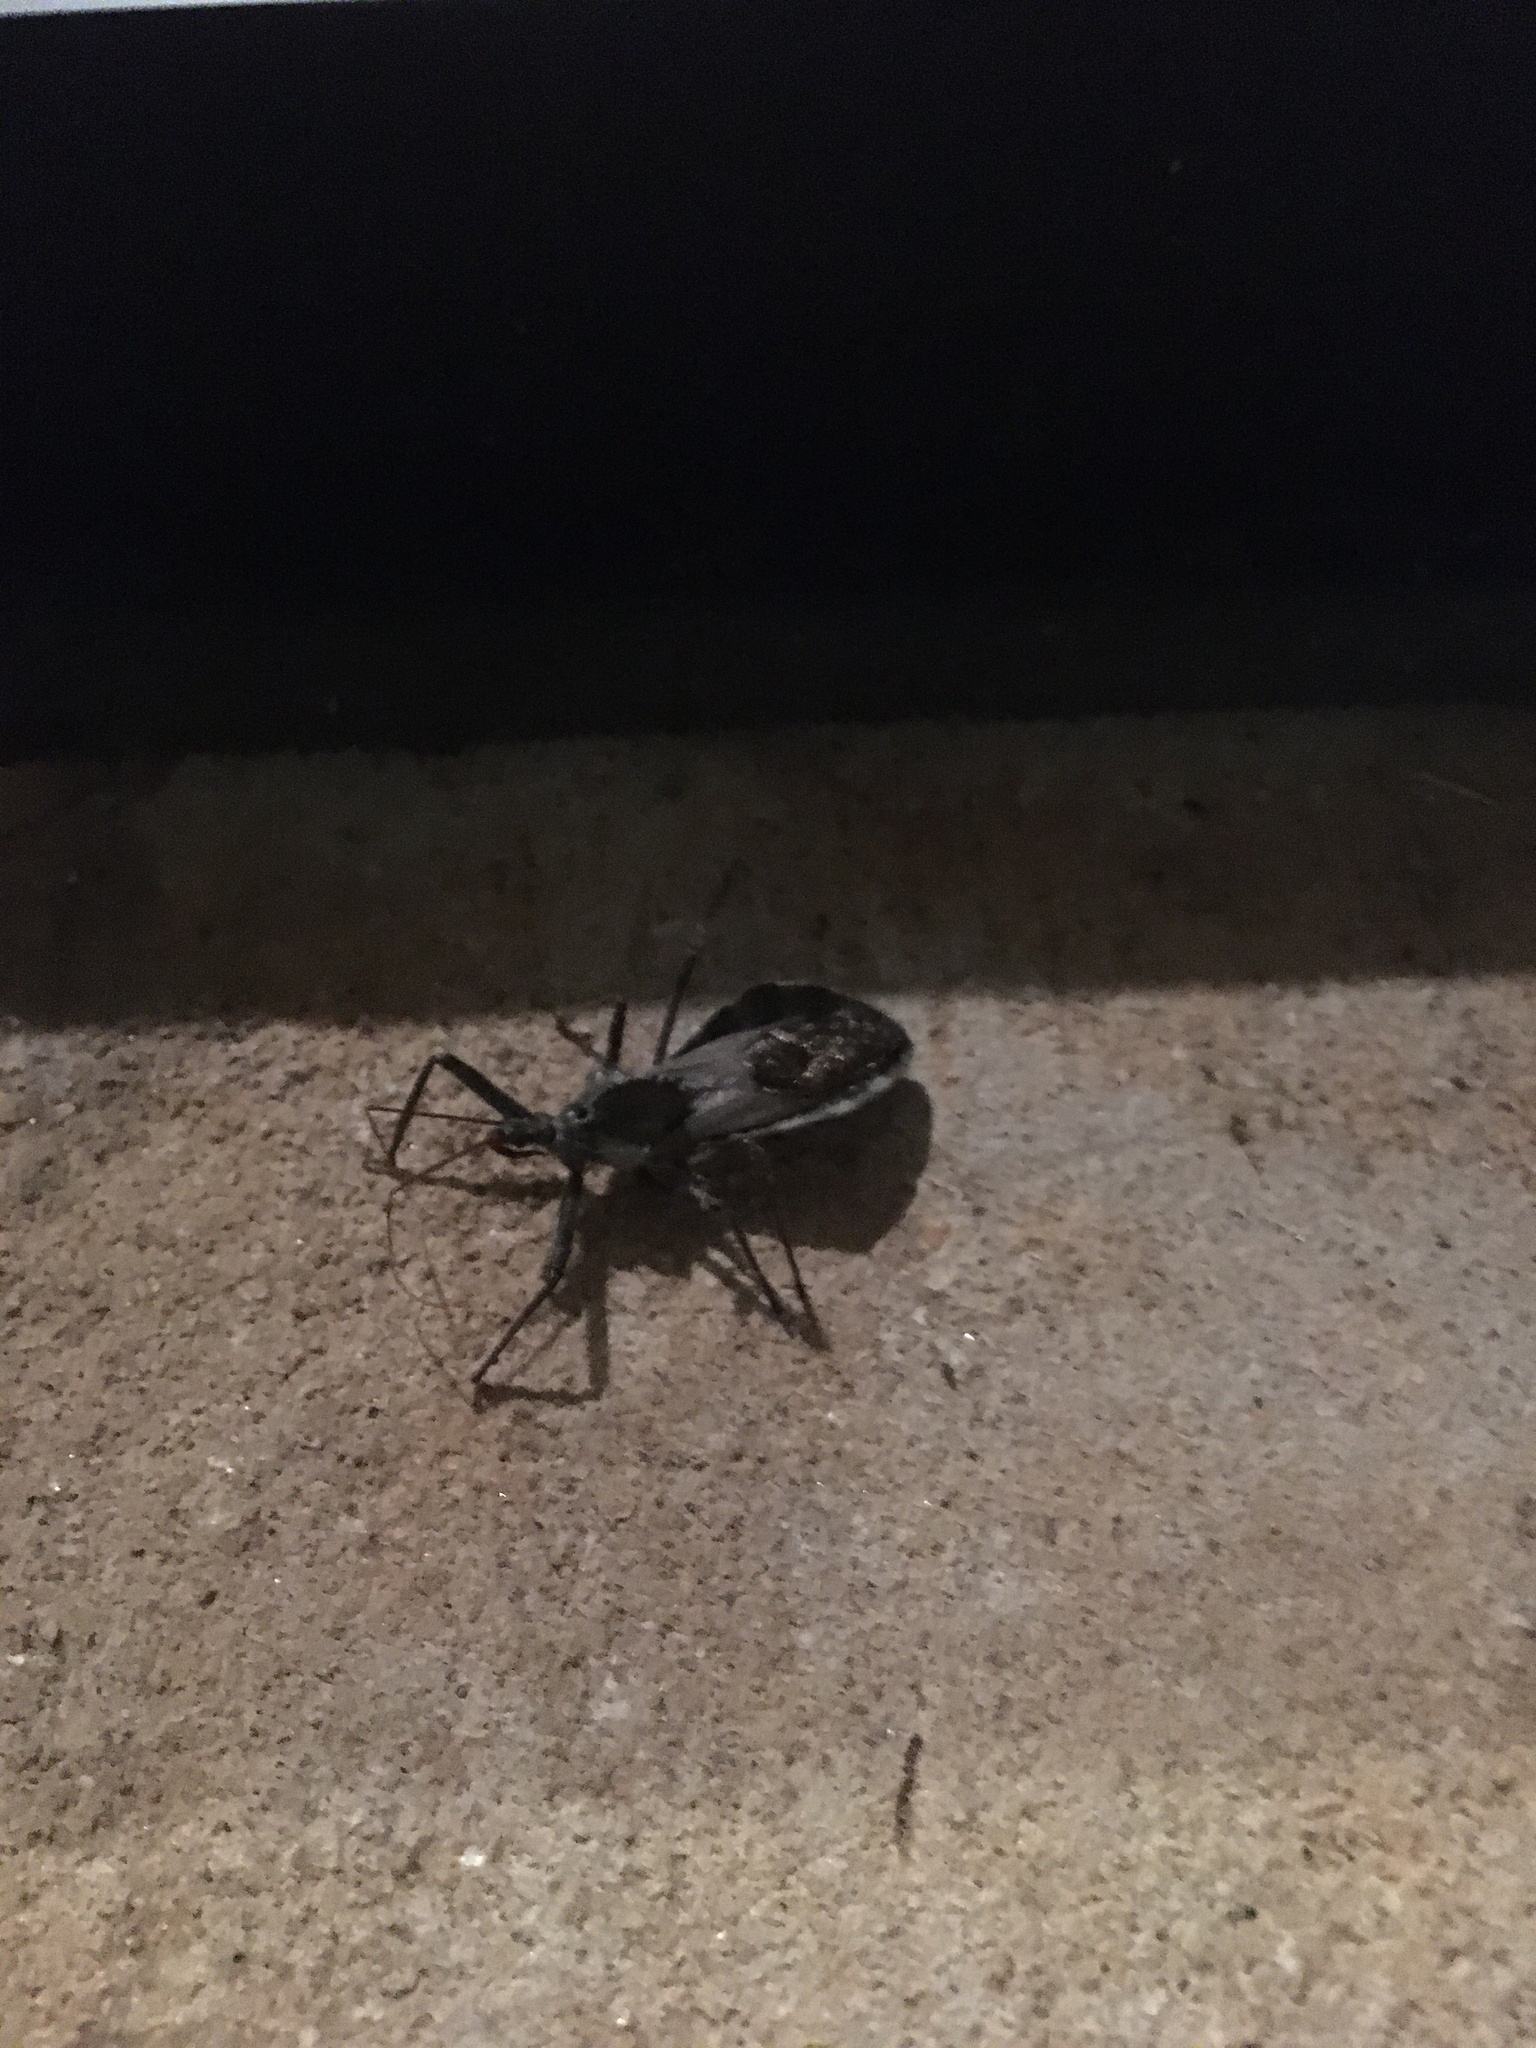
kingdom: Animalia
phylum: Arthropoda
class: Insecta
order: Hemiptera
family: Reduviidae
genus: Arilus
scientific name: Arilus cristatus
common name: North american wheel bug
